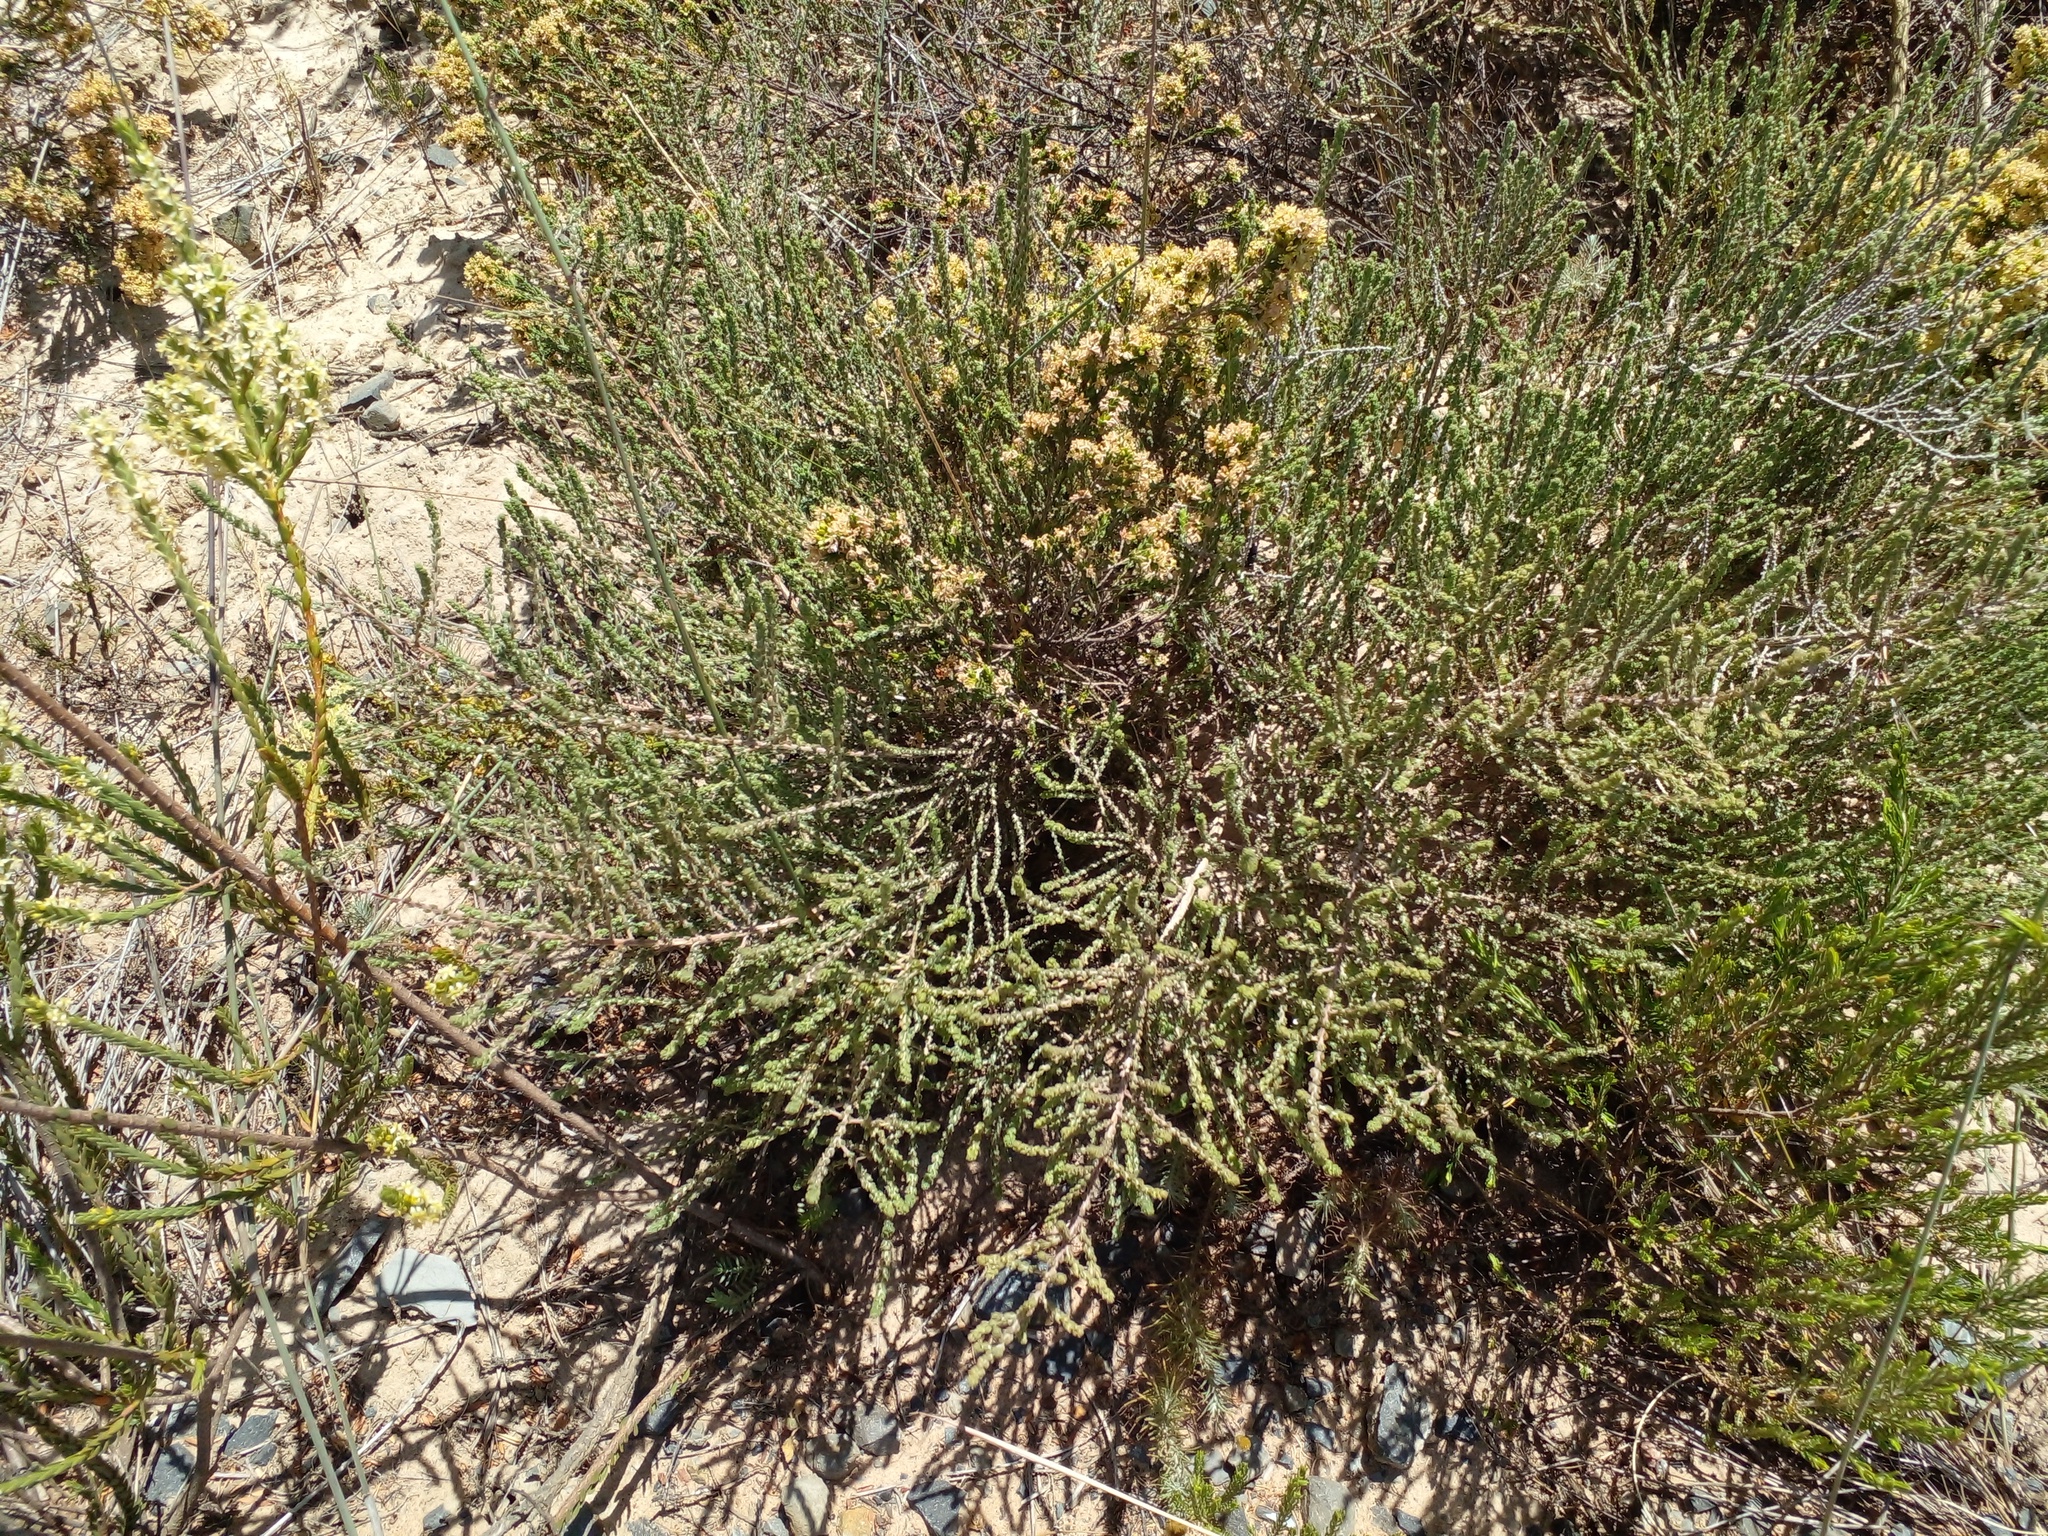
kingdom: Plantae
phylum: Tracheophyta
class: Magnoliopsida
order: Malvales
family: Thymelaeaceae
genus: Passerina
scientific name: Passerina corymbosa
